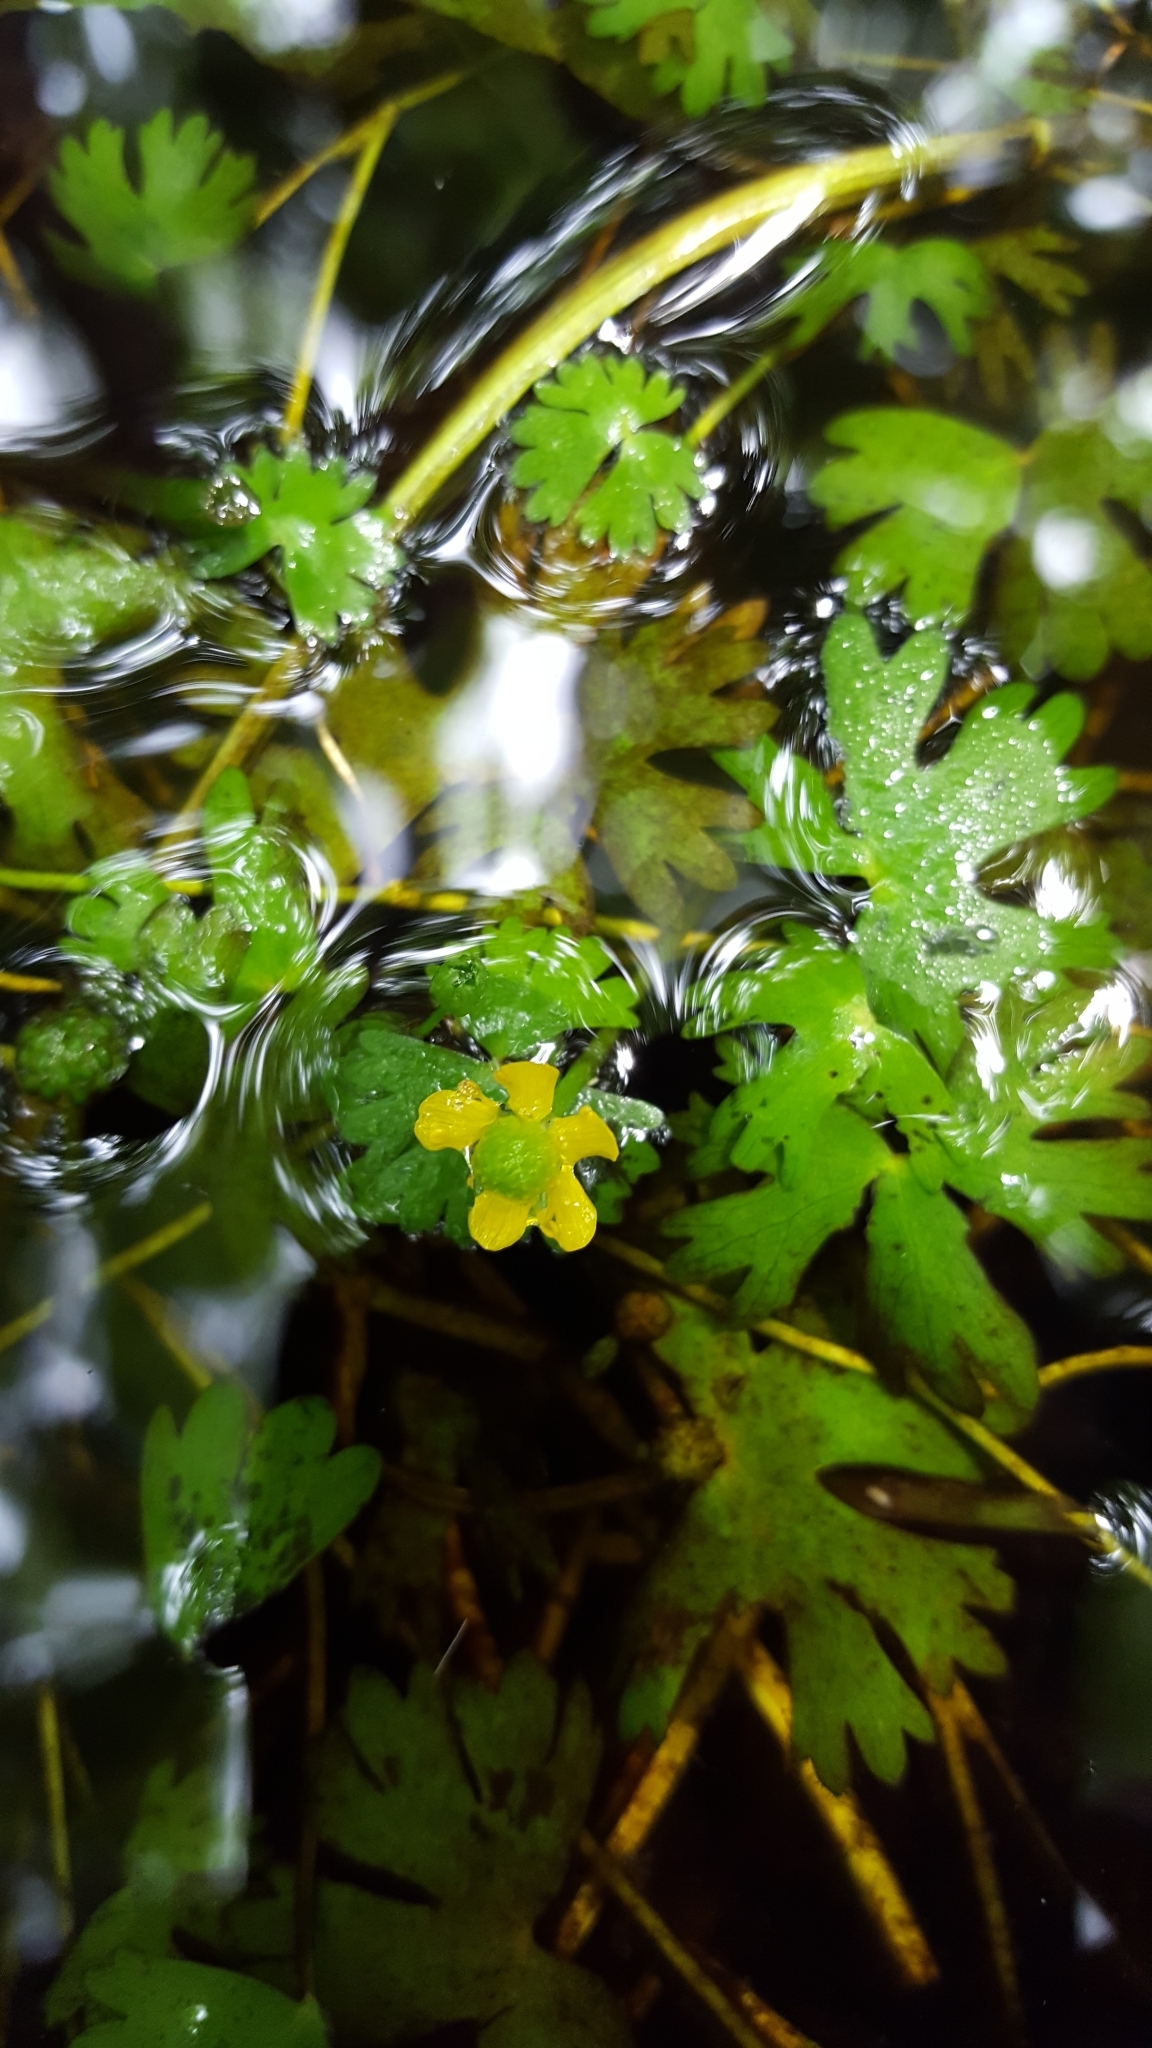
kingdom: Plantae
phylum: Tracheophyta
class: Magnoliopsida
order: Ranunculales
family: Ranunculaceae
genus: Ranunculus
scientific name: Ranunculus gmelinii
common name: Gmelin's buttercup
